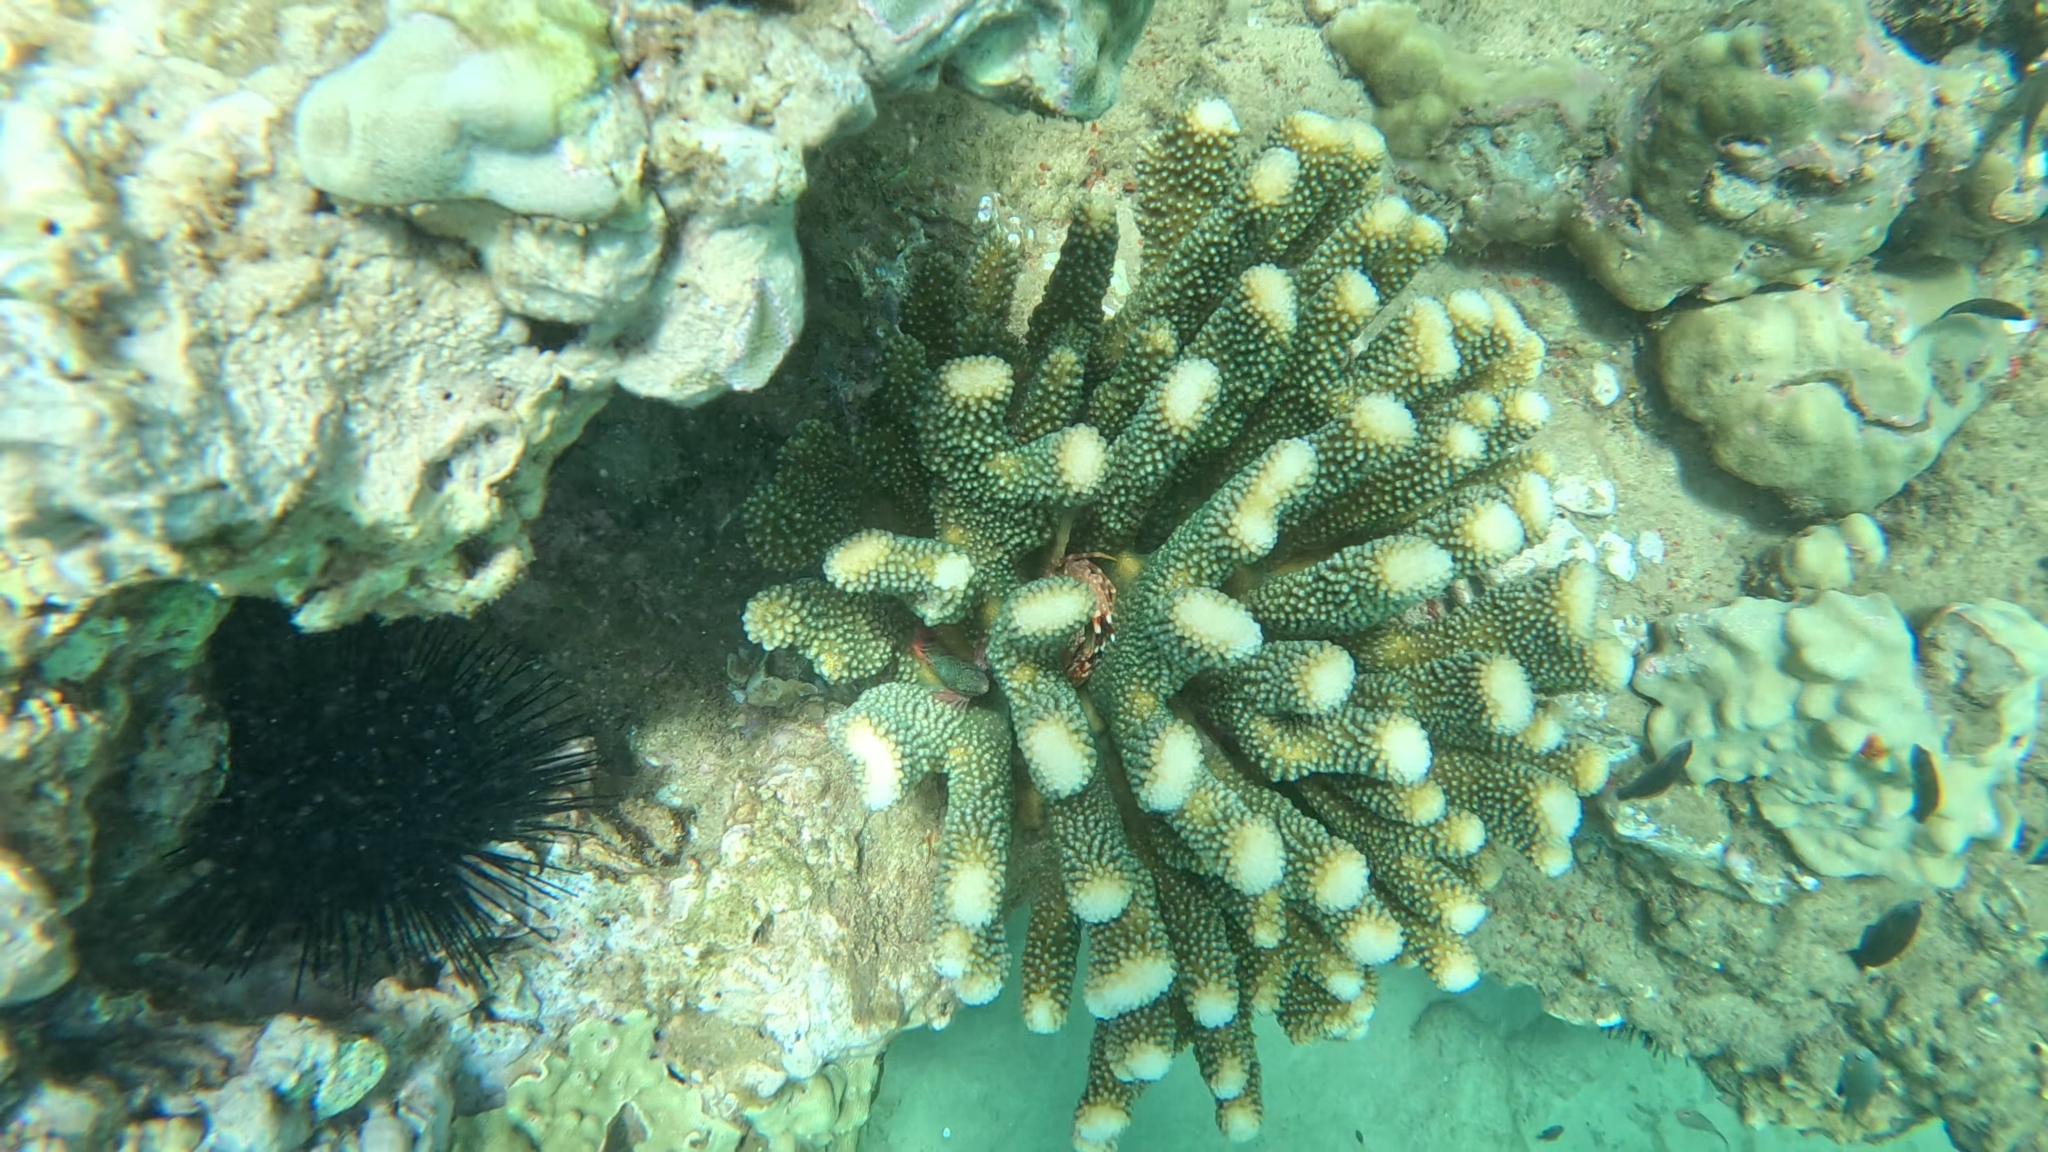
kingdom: Animalia
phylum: Cnidaria
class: Anthozoa
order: Scleractinia
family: Pocilloporidae
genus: Pocillopora
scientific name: Pocillopora grandis
